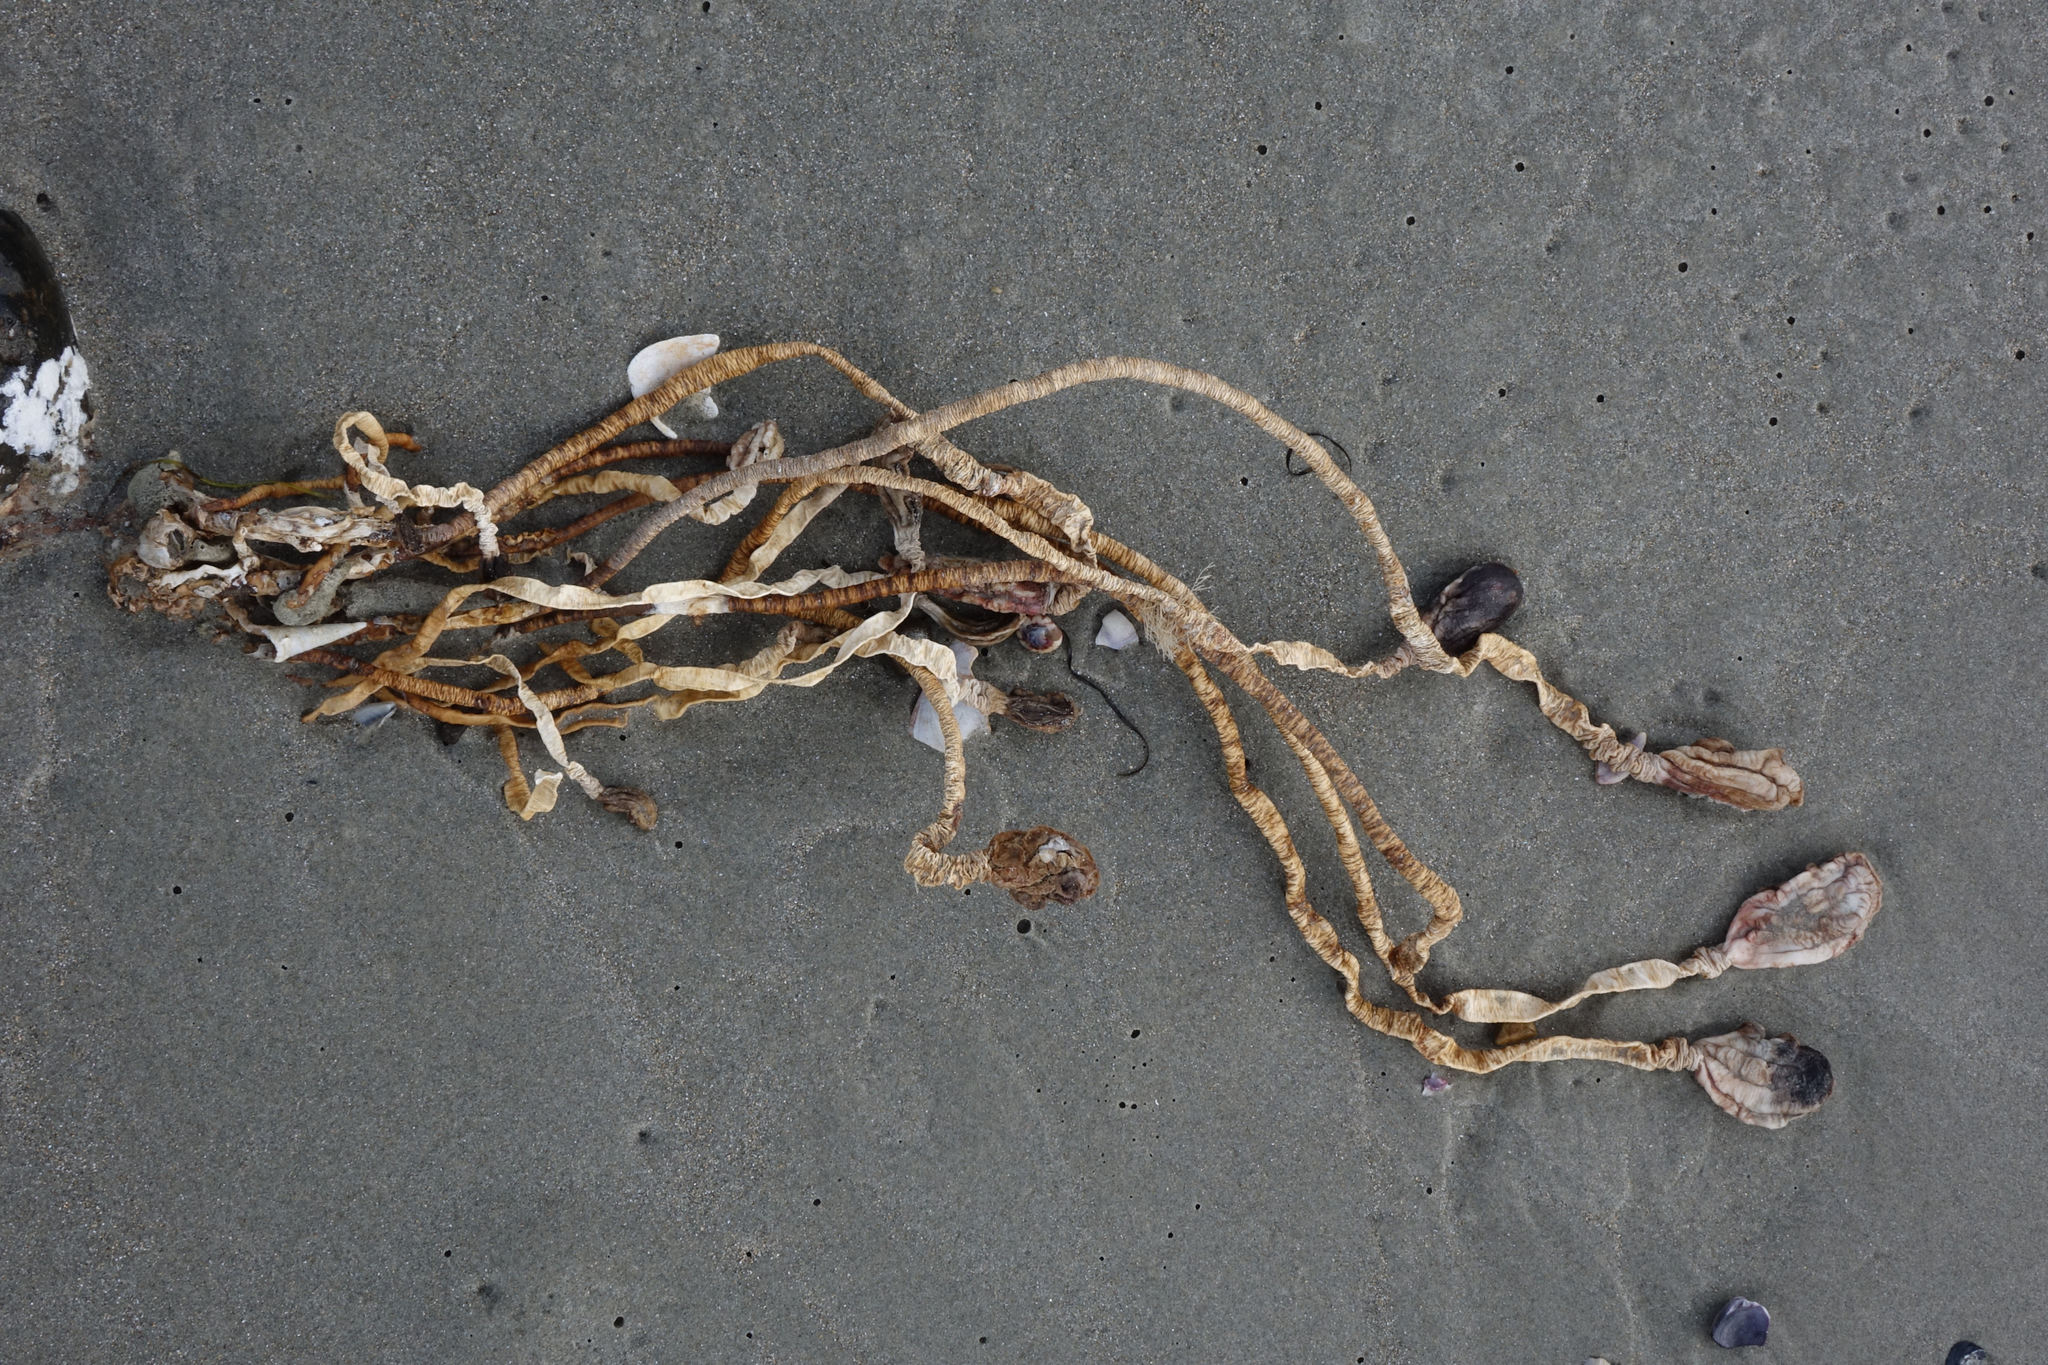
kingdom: Animalia
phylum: Chordata
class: Ascidiacea
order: Stolidobranchia
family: Pyuridae
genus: Pyura
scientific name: Pyura pachydermatina
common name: Sea tulip
